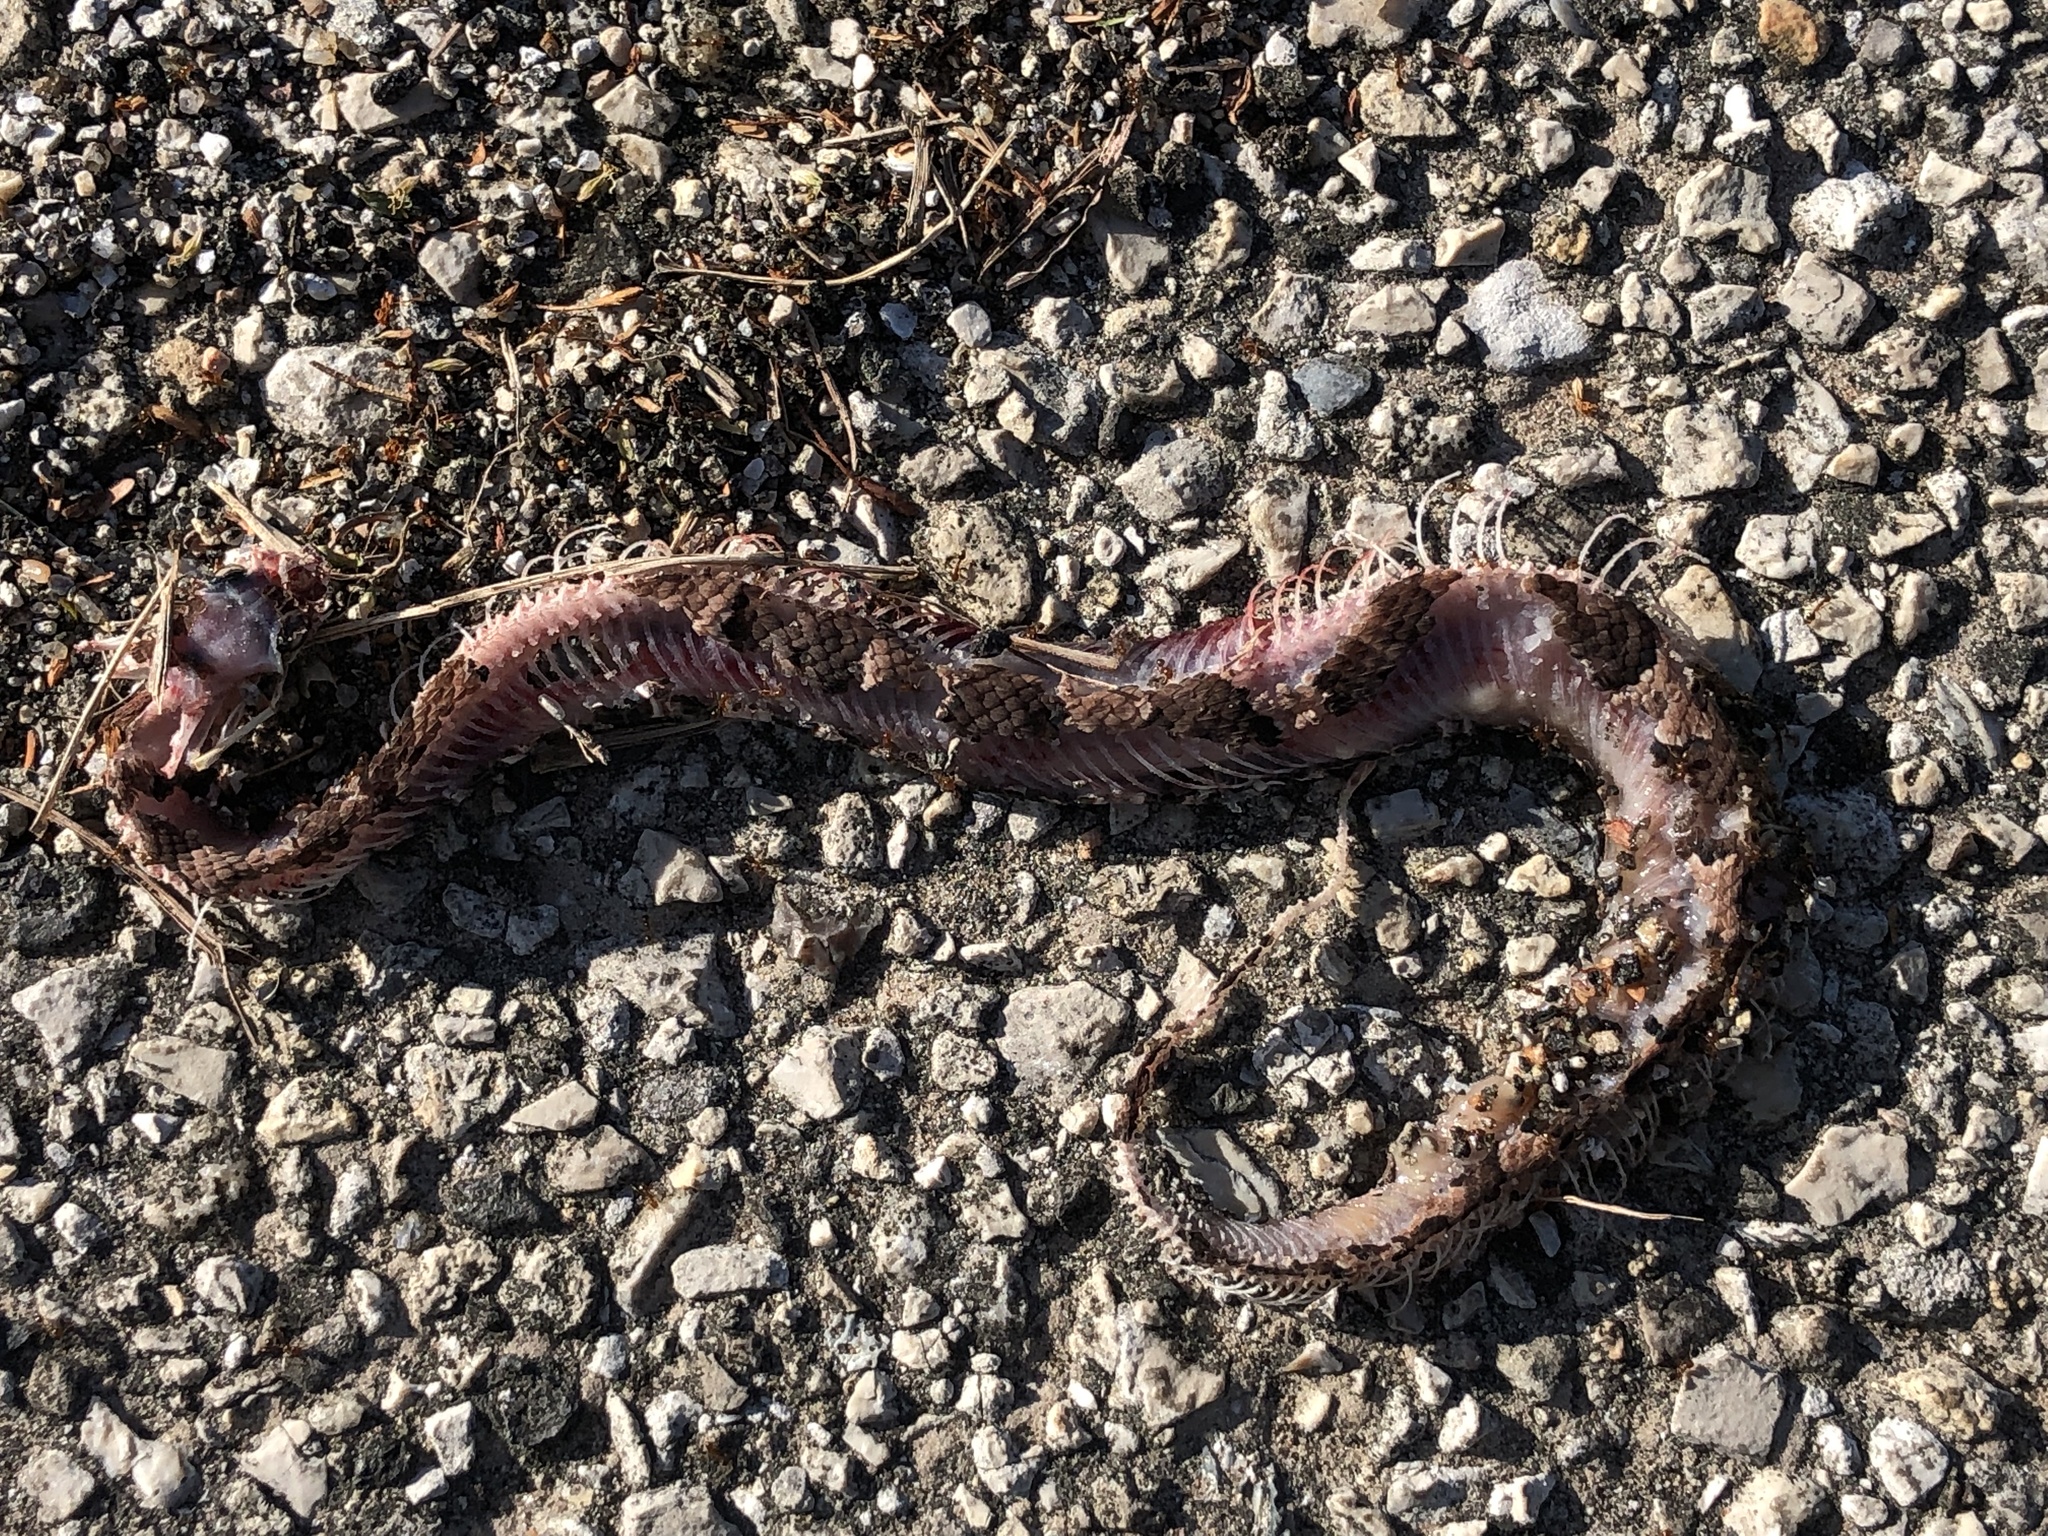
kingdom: Animalia
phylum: Chordata
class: Squamata
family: Viperidae
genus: Agkistrodon
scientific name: Agkistrodon piscivorus
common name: Cottonmouth
